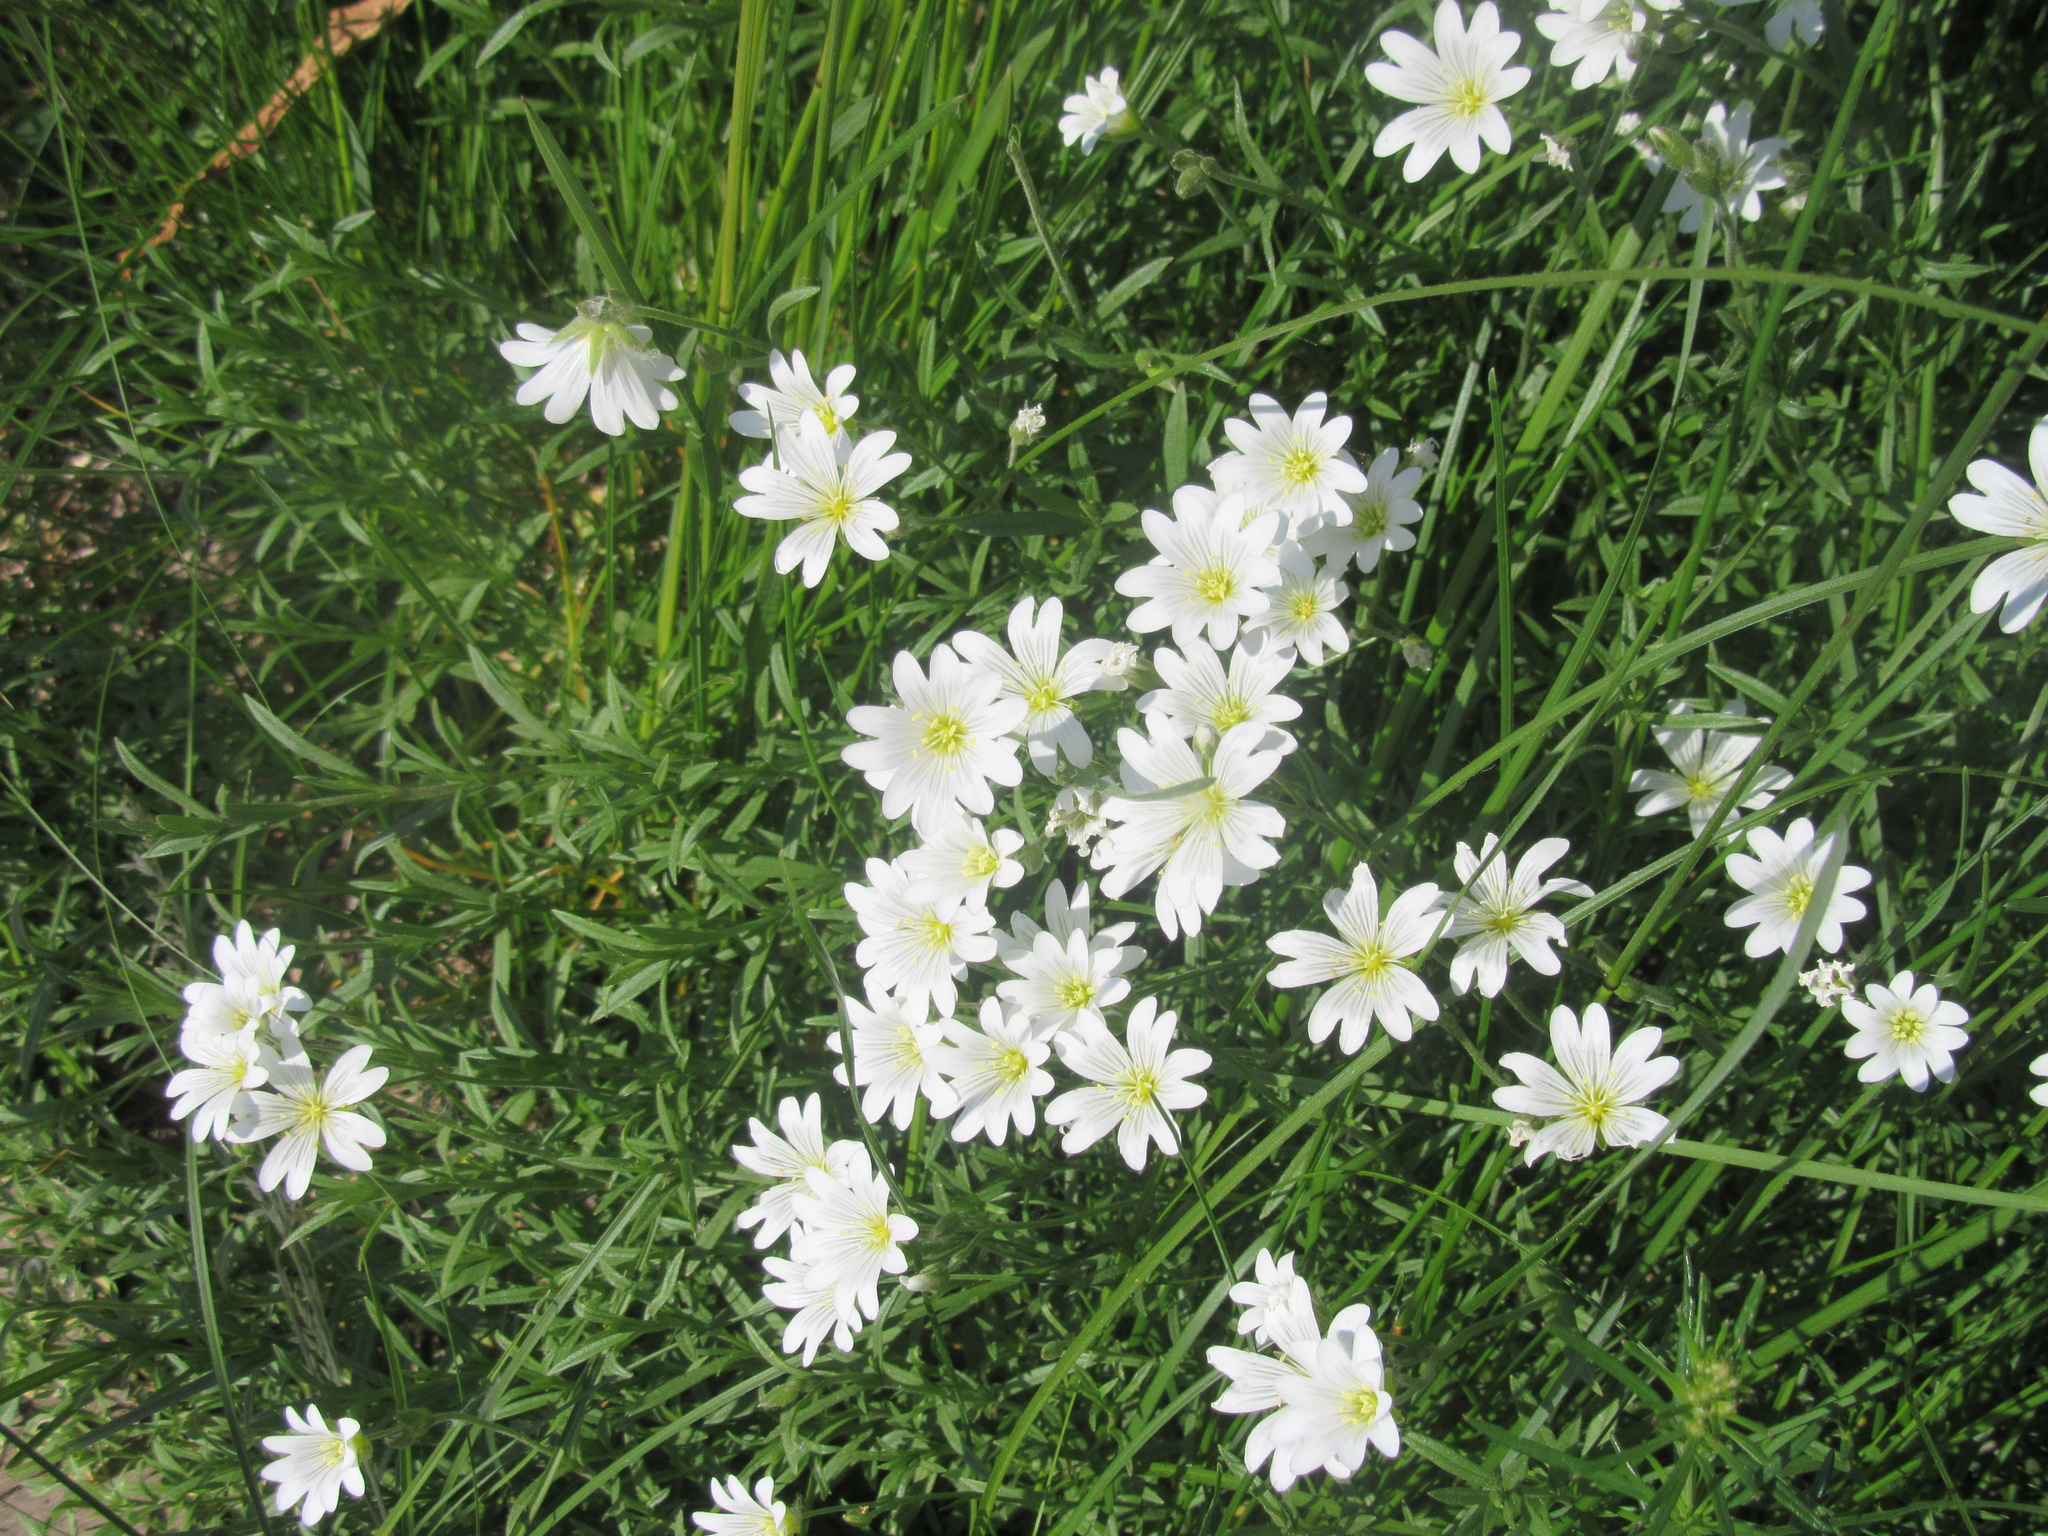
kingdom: Plantae
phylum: Tracheophyta
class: Magnoliopsida
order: Caryophyllales
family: Caryophyllaceae
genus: Cerastium
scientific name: Cerastium arvense
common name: Field mouse-ear
